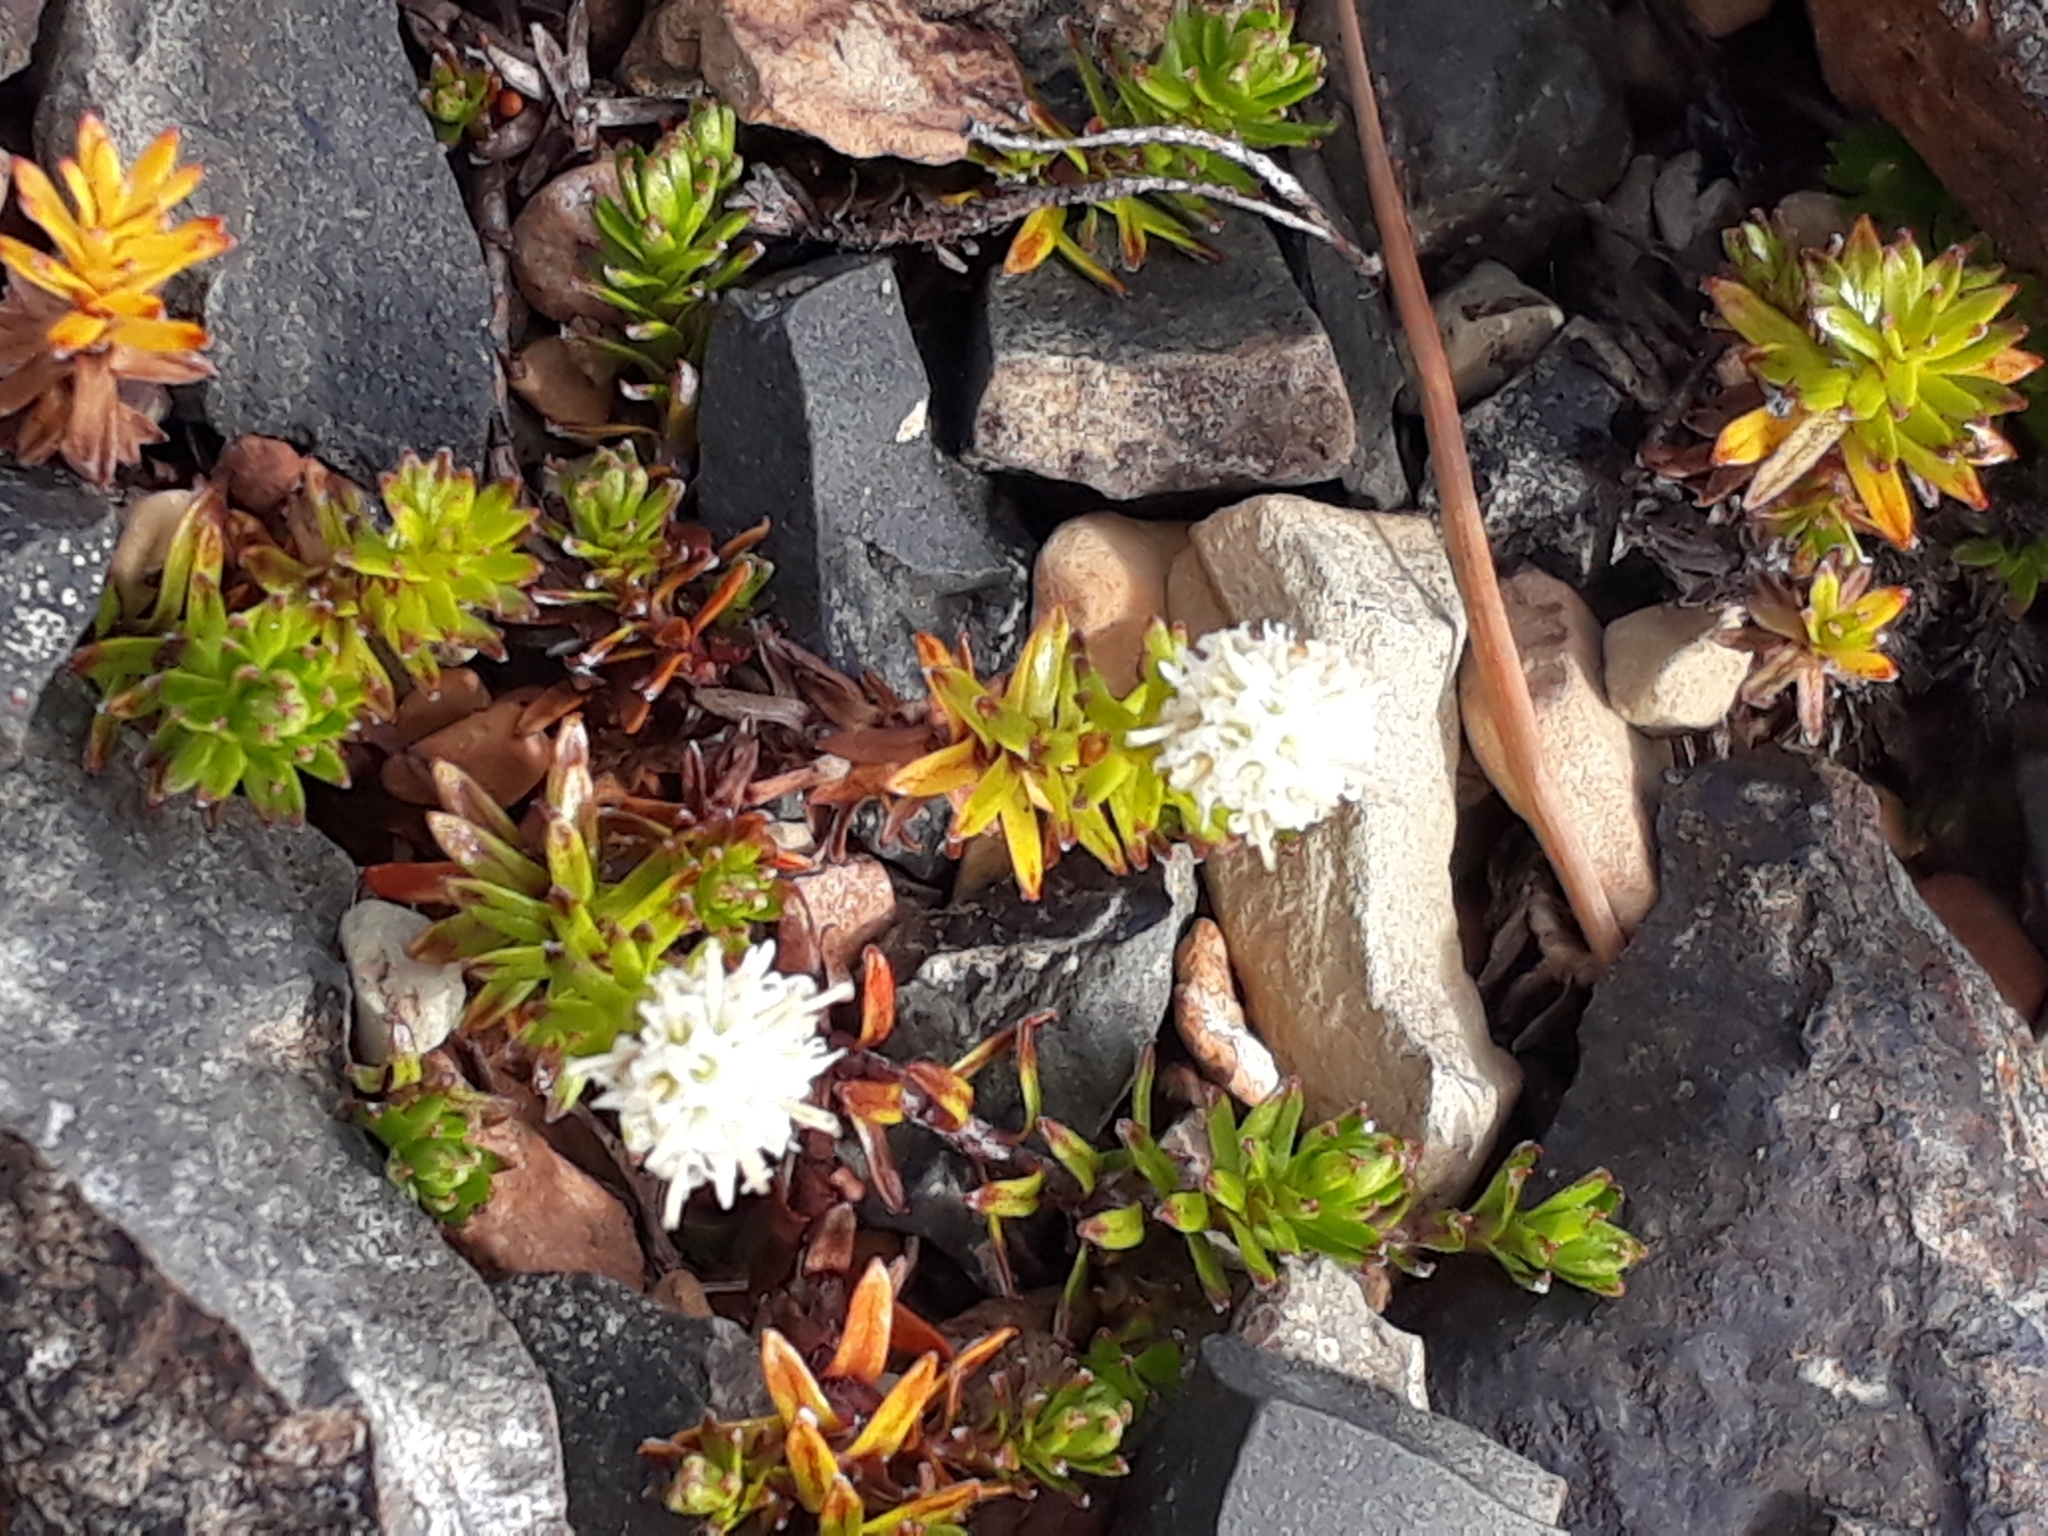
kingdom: Plantae
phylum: Tracheophyta
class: Magnoliopsida
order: Asterales
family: Asteraceae
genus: Raoulia
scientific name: Raoulia glabra
